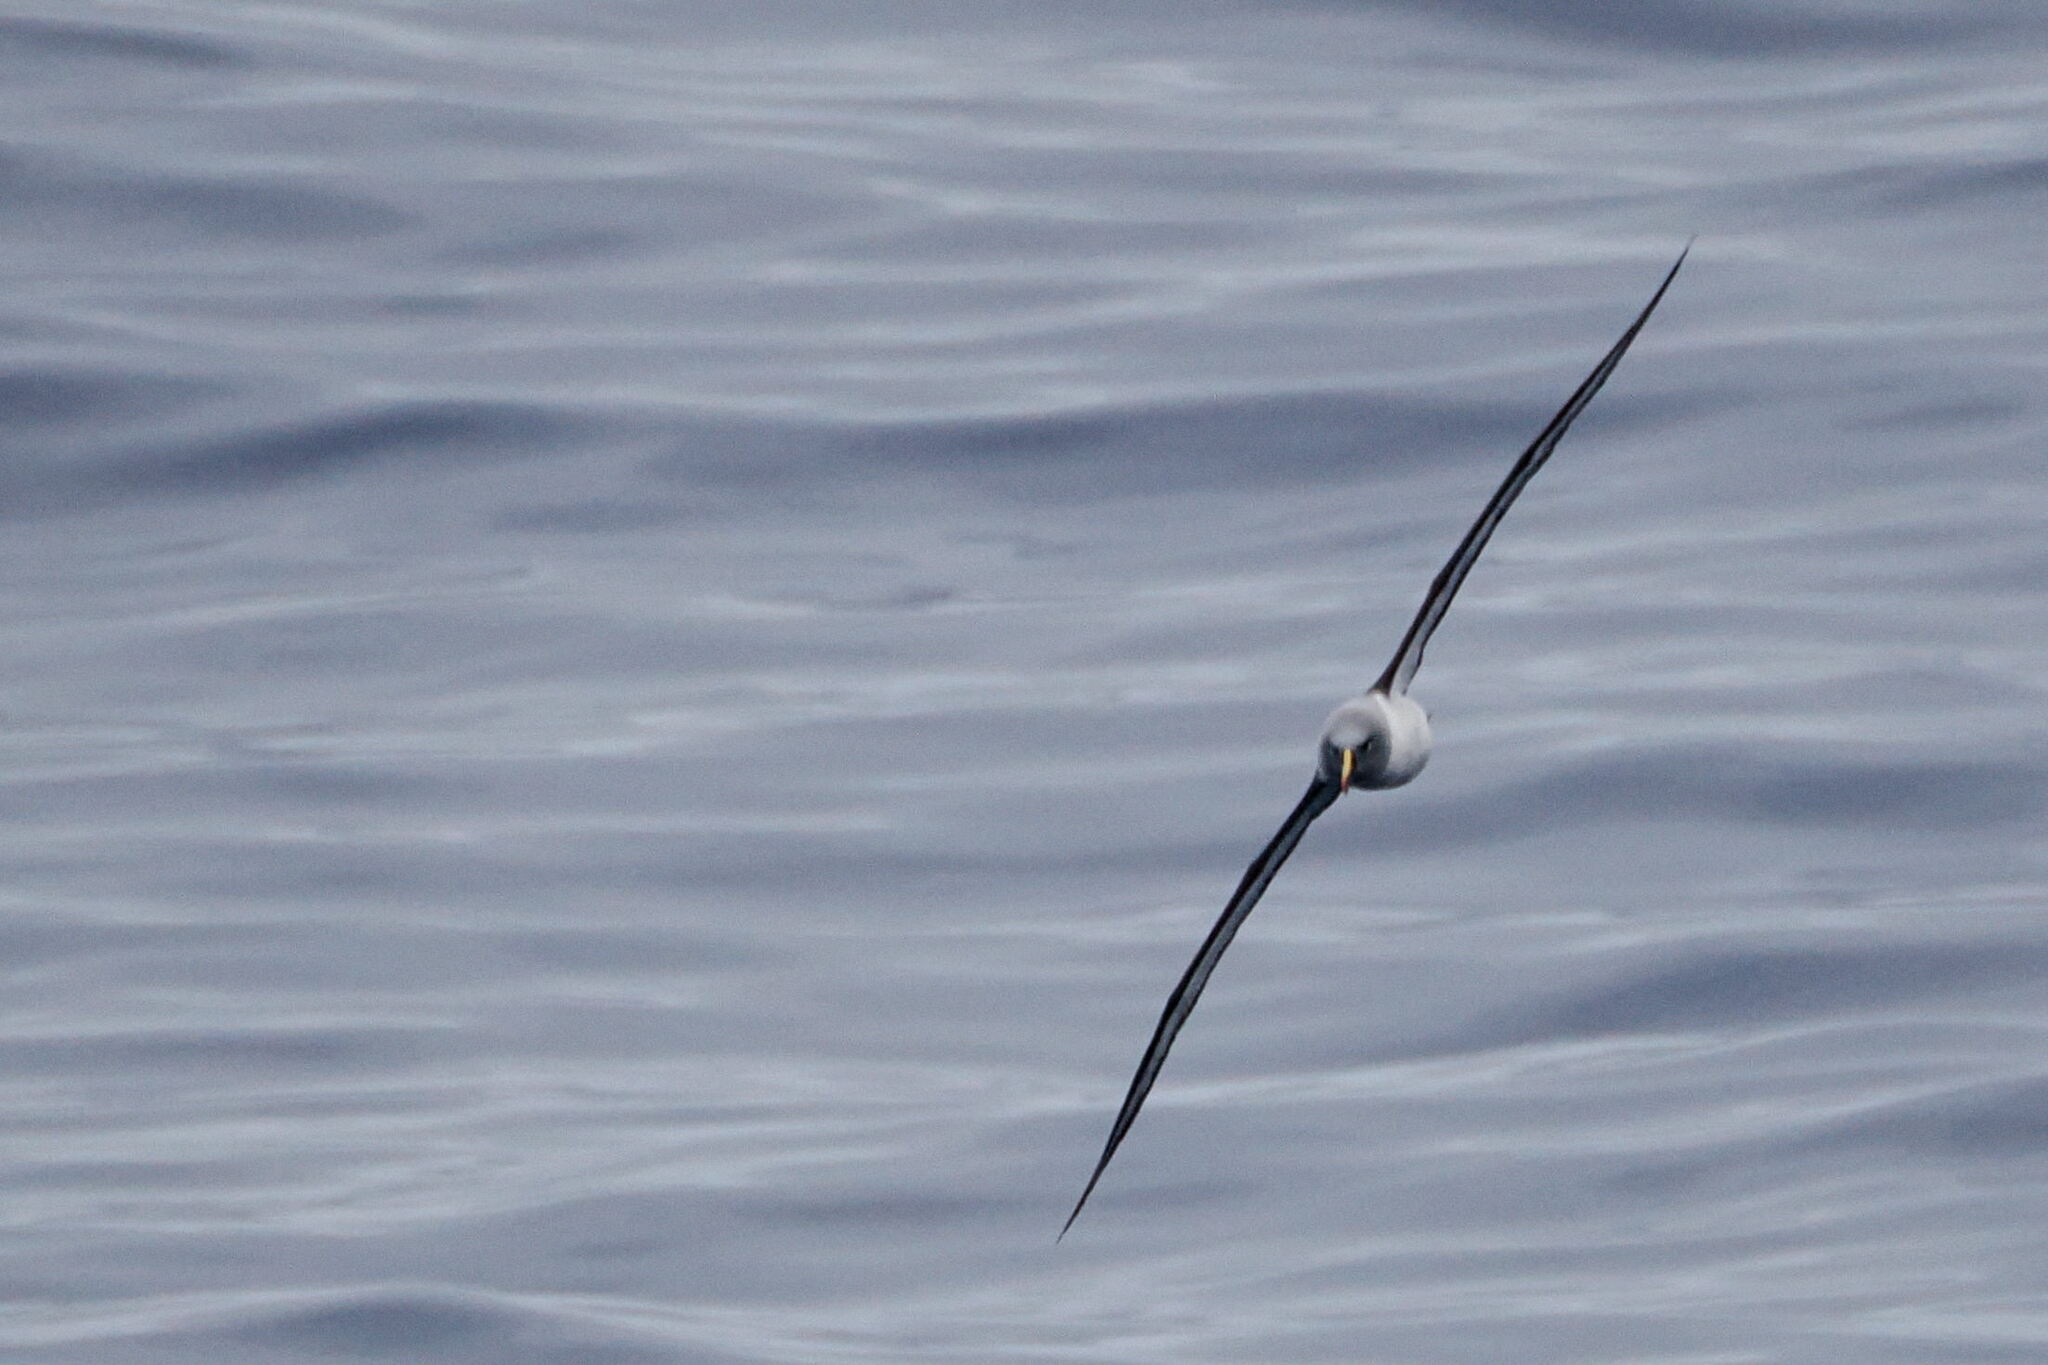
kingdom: Animalia
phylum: Chordata
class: Aves
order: Procellariiformes
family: Diomedeidae
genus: Thalassarche
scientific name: Thalassarche chrysostoma
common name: Grey-headed albatross
